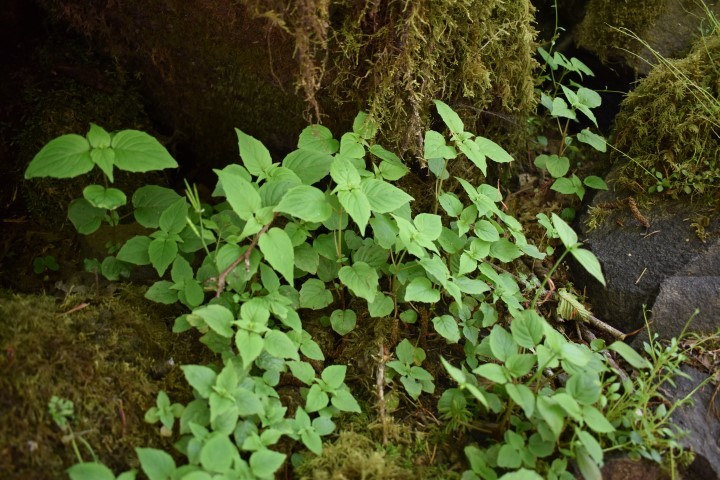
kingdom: Plantae
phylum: Tracheophyta
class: Magnoliopsida
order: Myrtales
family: Onagraceae
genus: Circaea
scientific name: Circaea alpina
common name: Alpine enchanter's-nightshade
